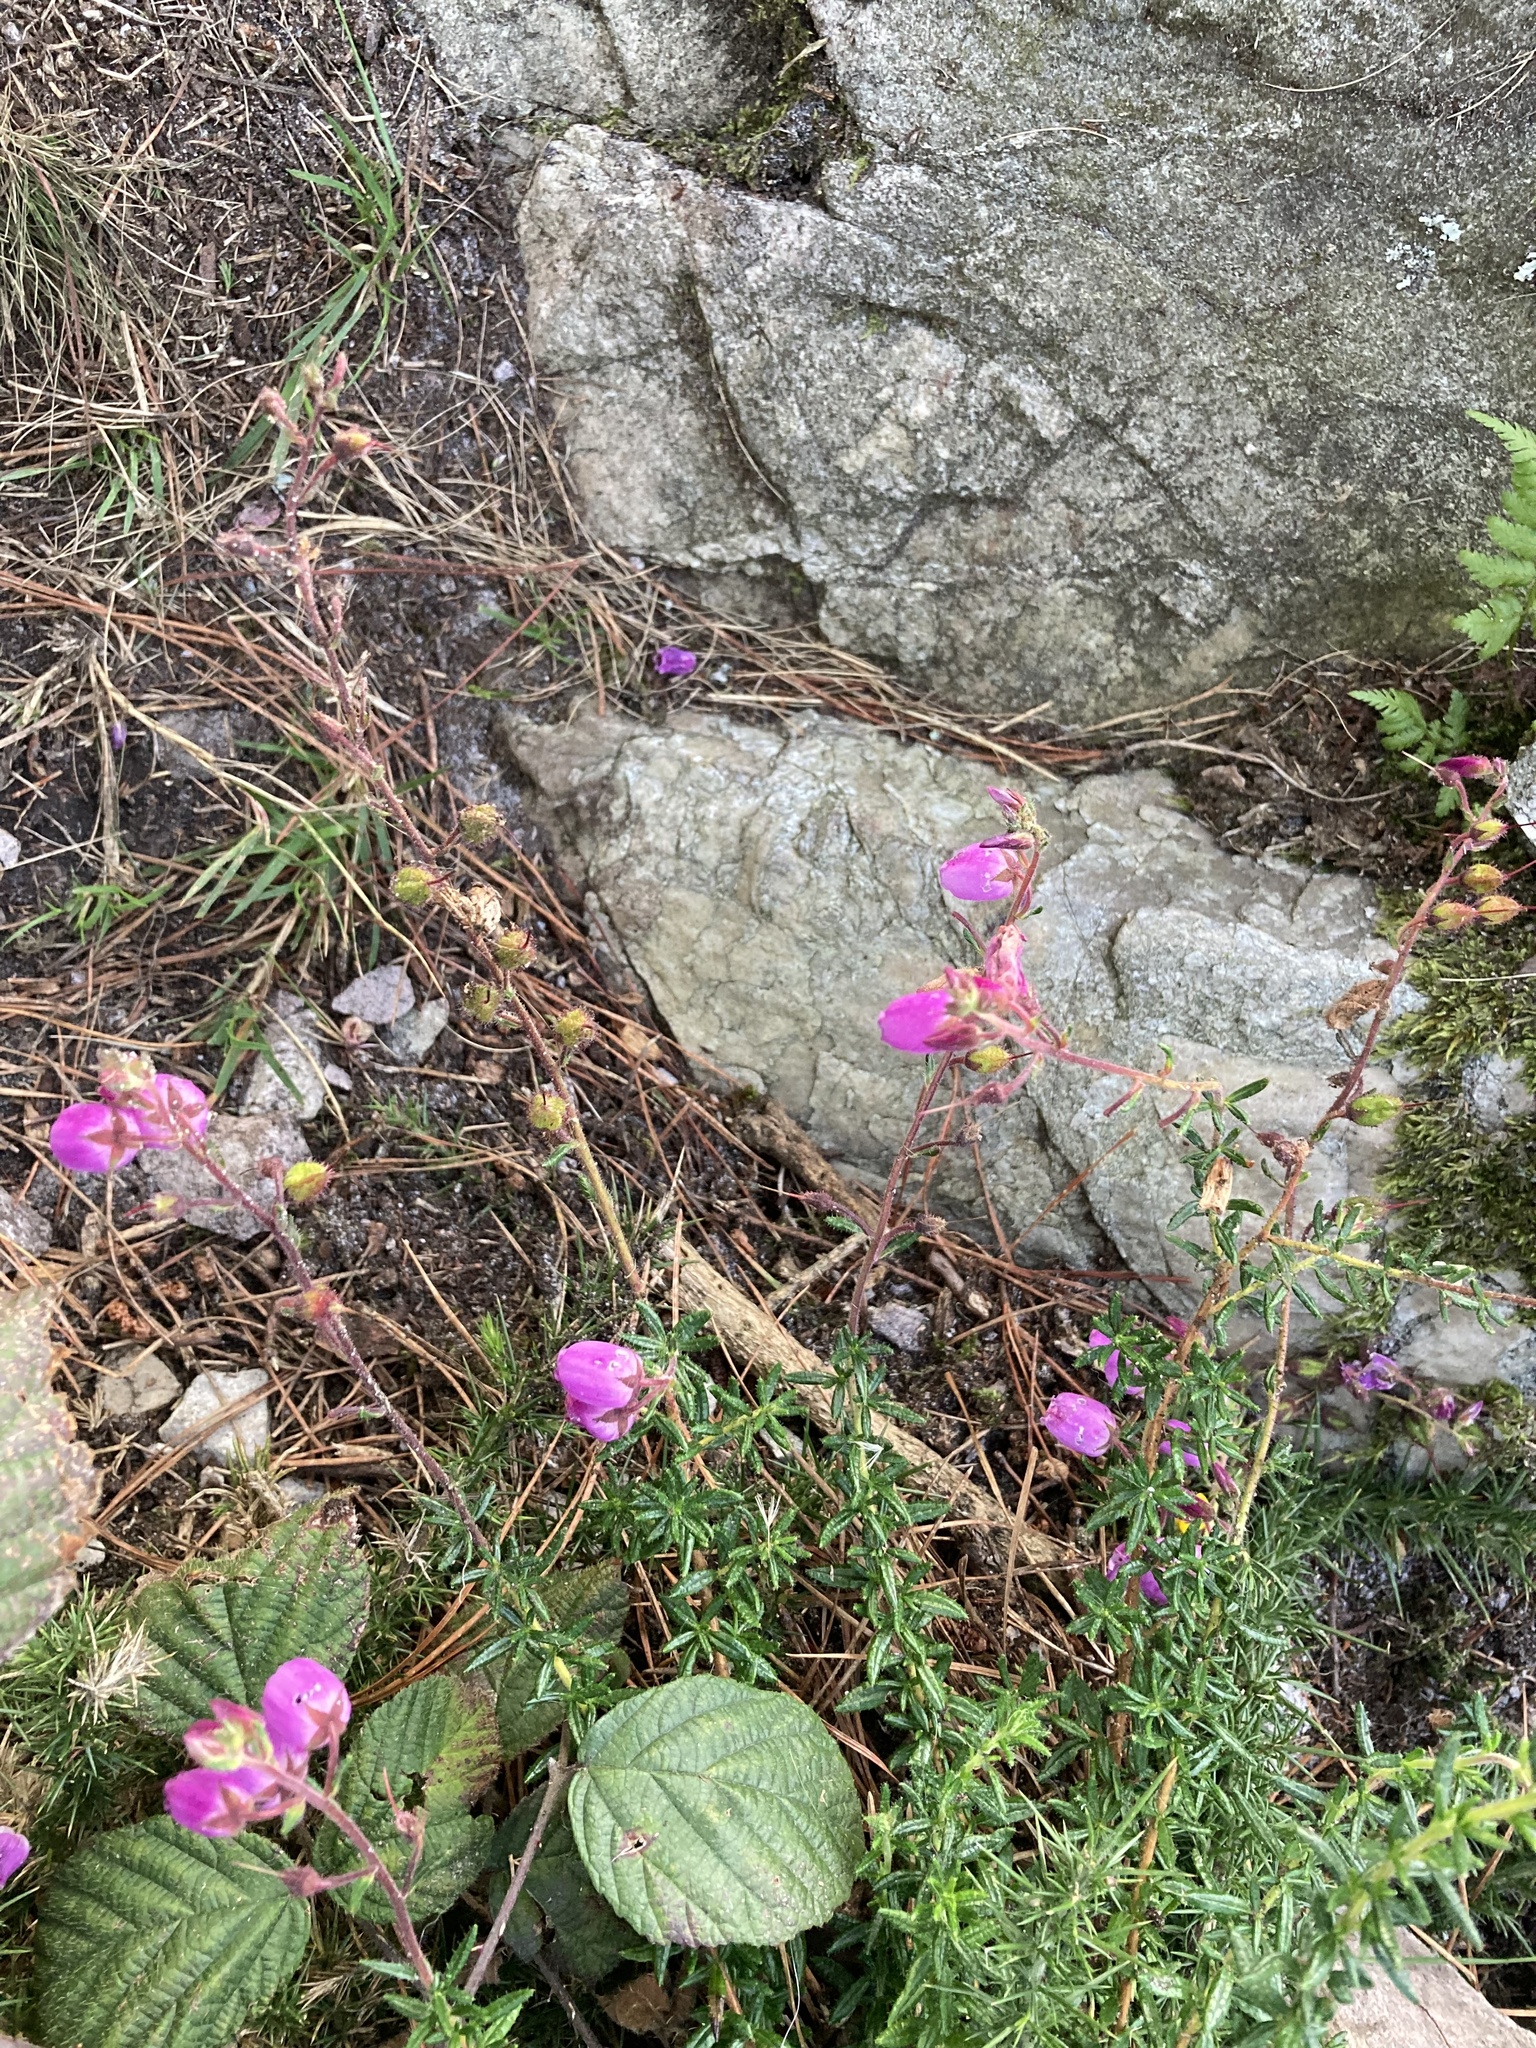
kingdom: Plantae
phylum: Tracheophyta
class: Magnoliopsida
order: Ericales
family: Ericaceae
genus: Daboecia
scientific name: Daboecia cantabrica
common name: St. dabeoc's-heath
